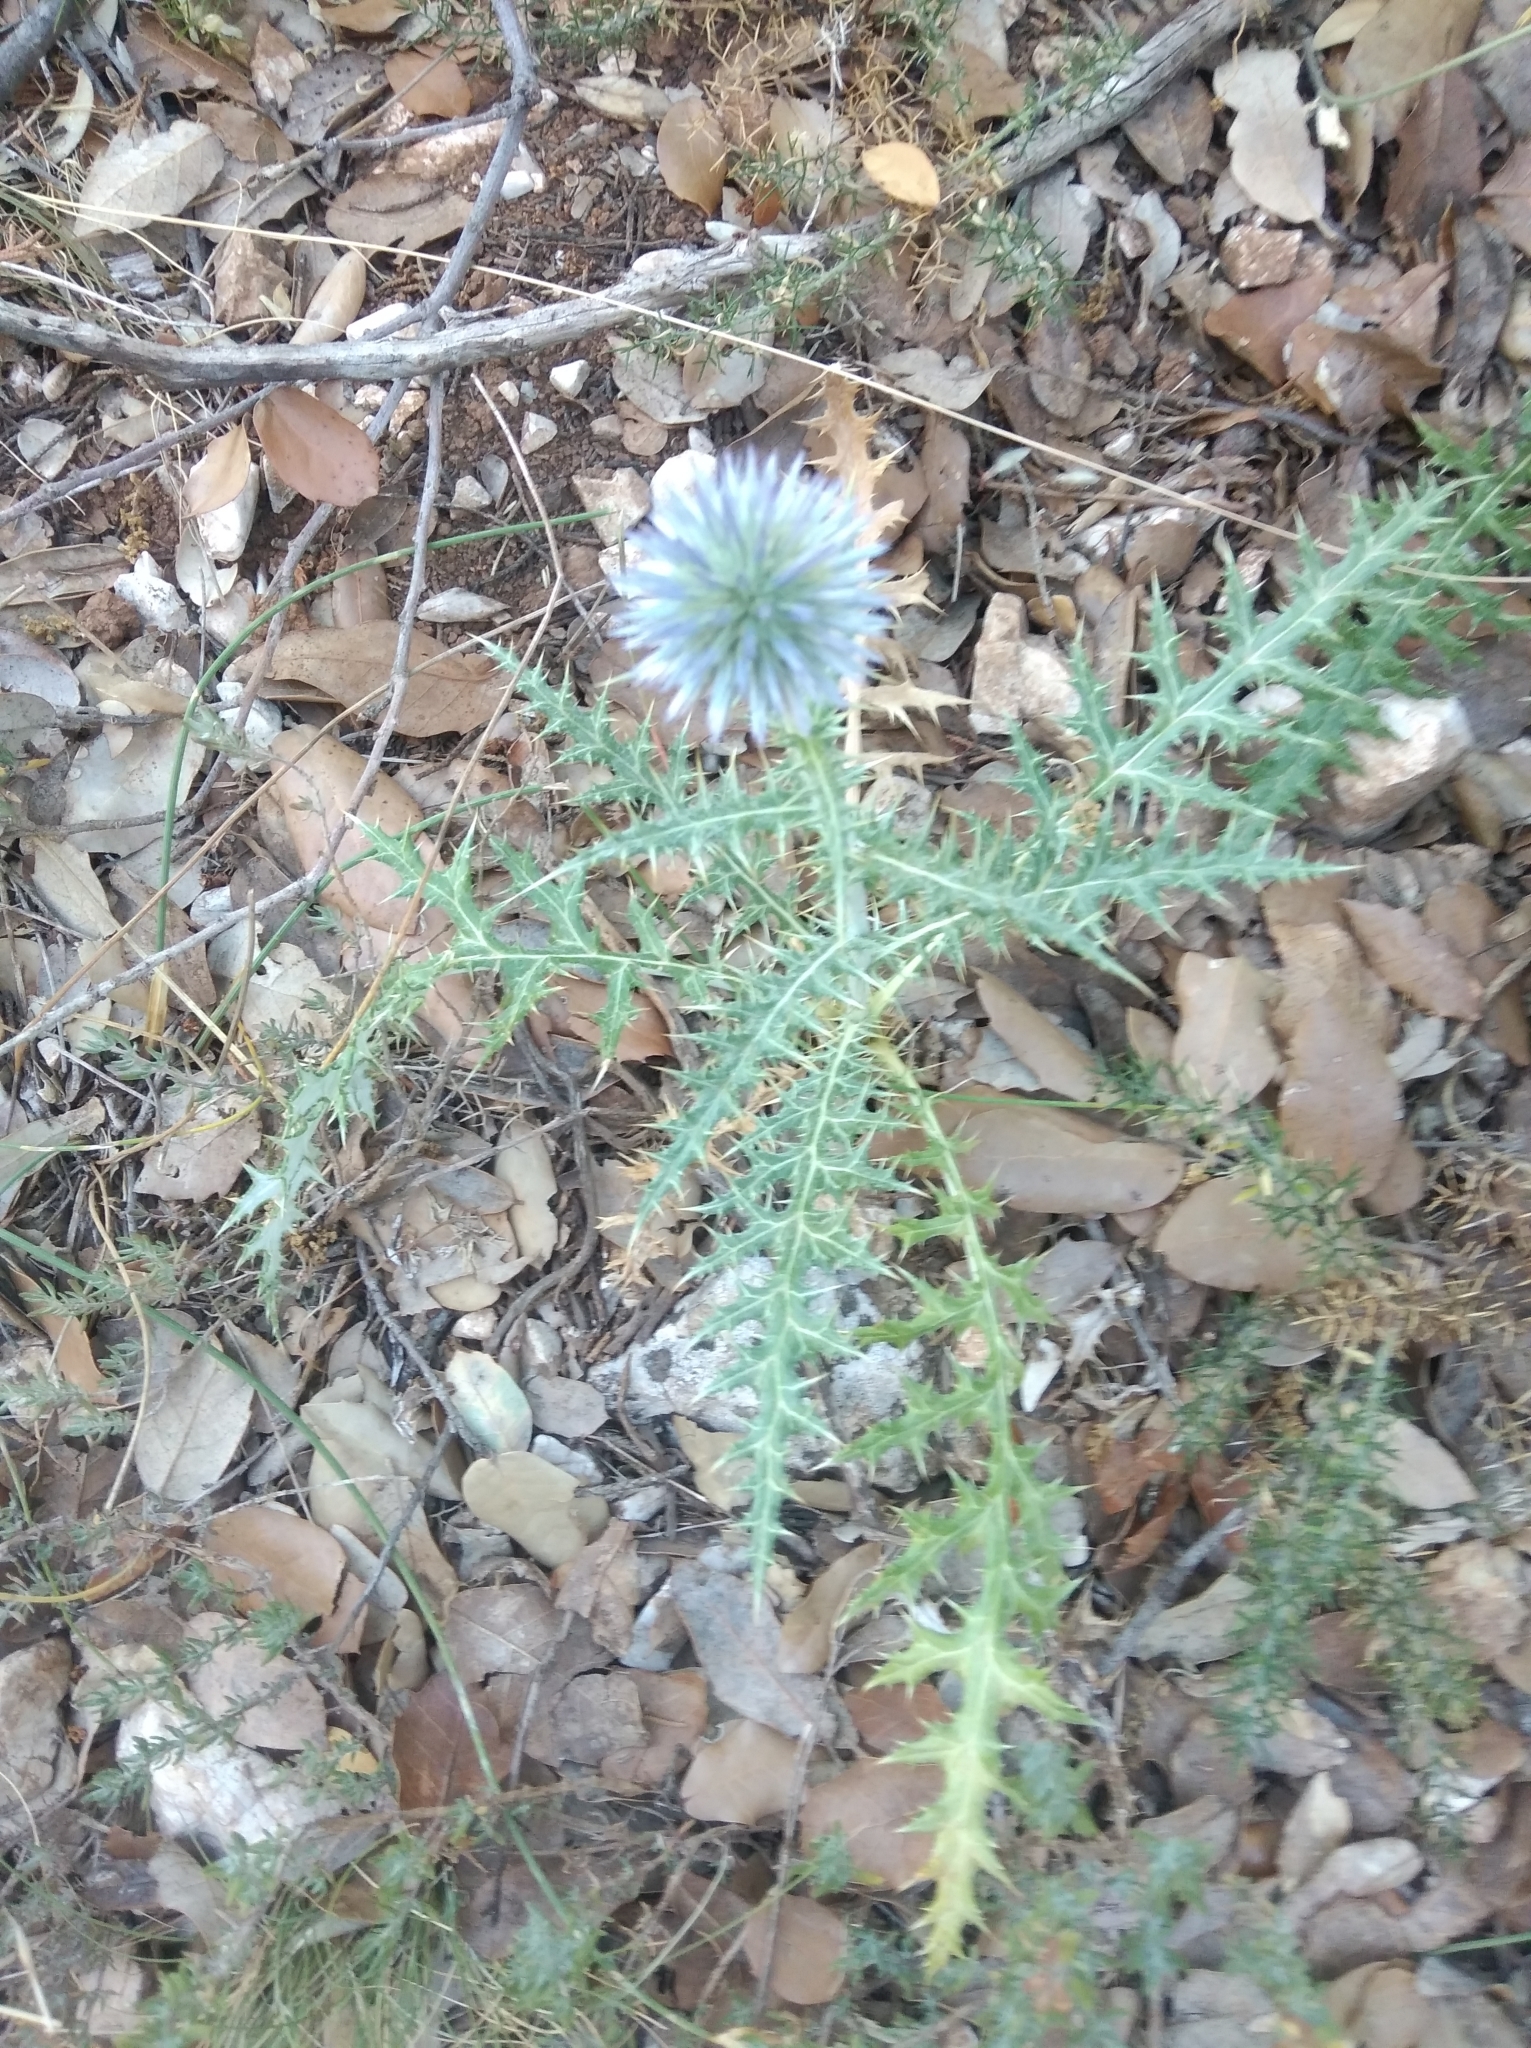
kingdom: Plantae
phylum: Tracheophyta
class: Magnoliopsida
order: Asterales
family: Asteraceae
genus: Echinops
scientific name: Echinops ritro
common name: Globe thistle
